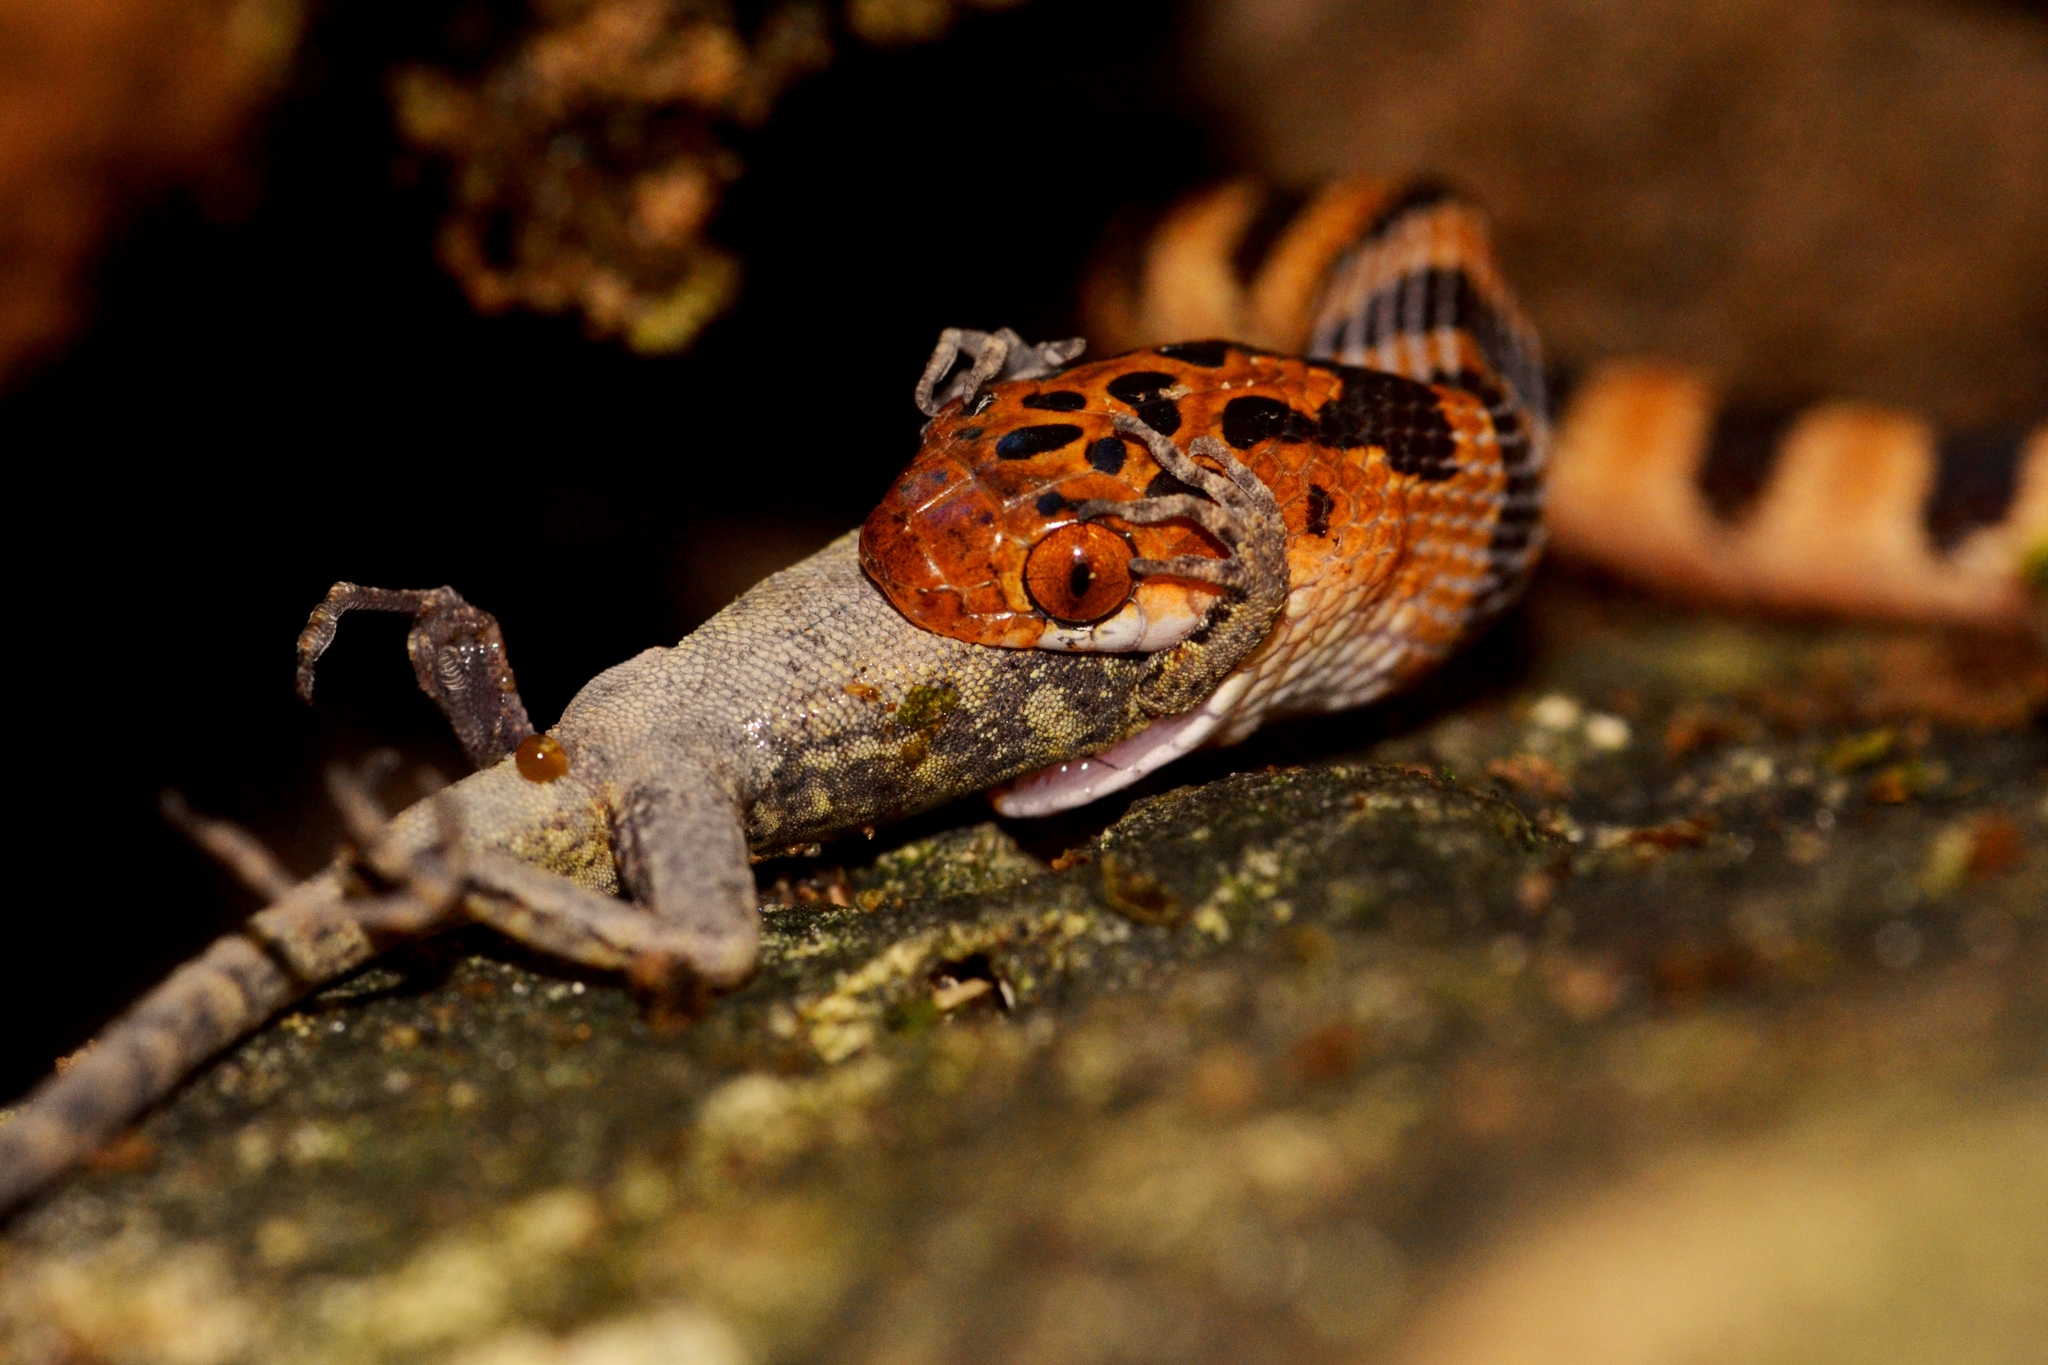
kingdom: Animalia
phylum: Chordata
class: Squamata
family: Colubridae
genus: Imantodes
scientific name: Imantodes gemmistratus
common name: Central american tree snake
